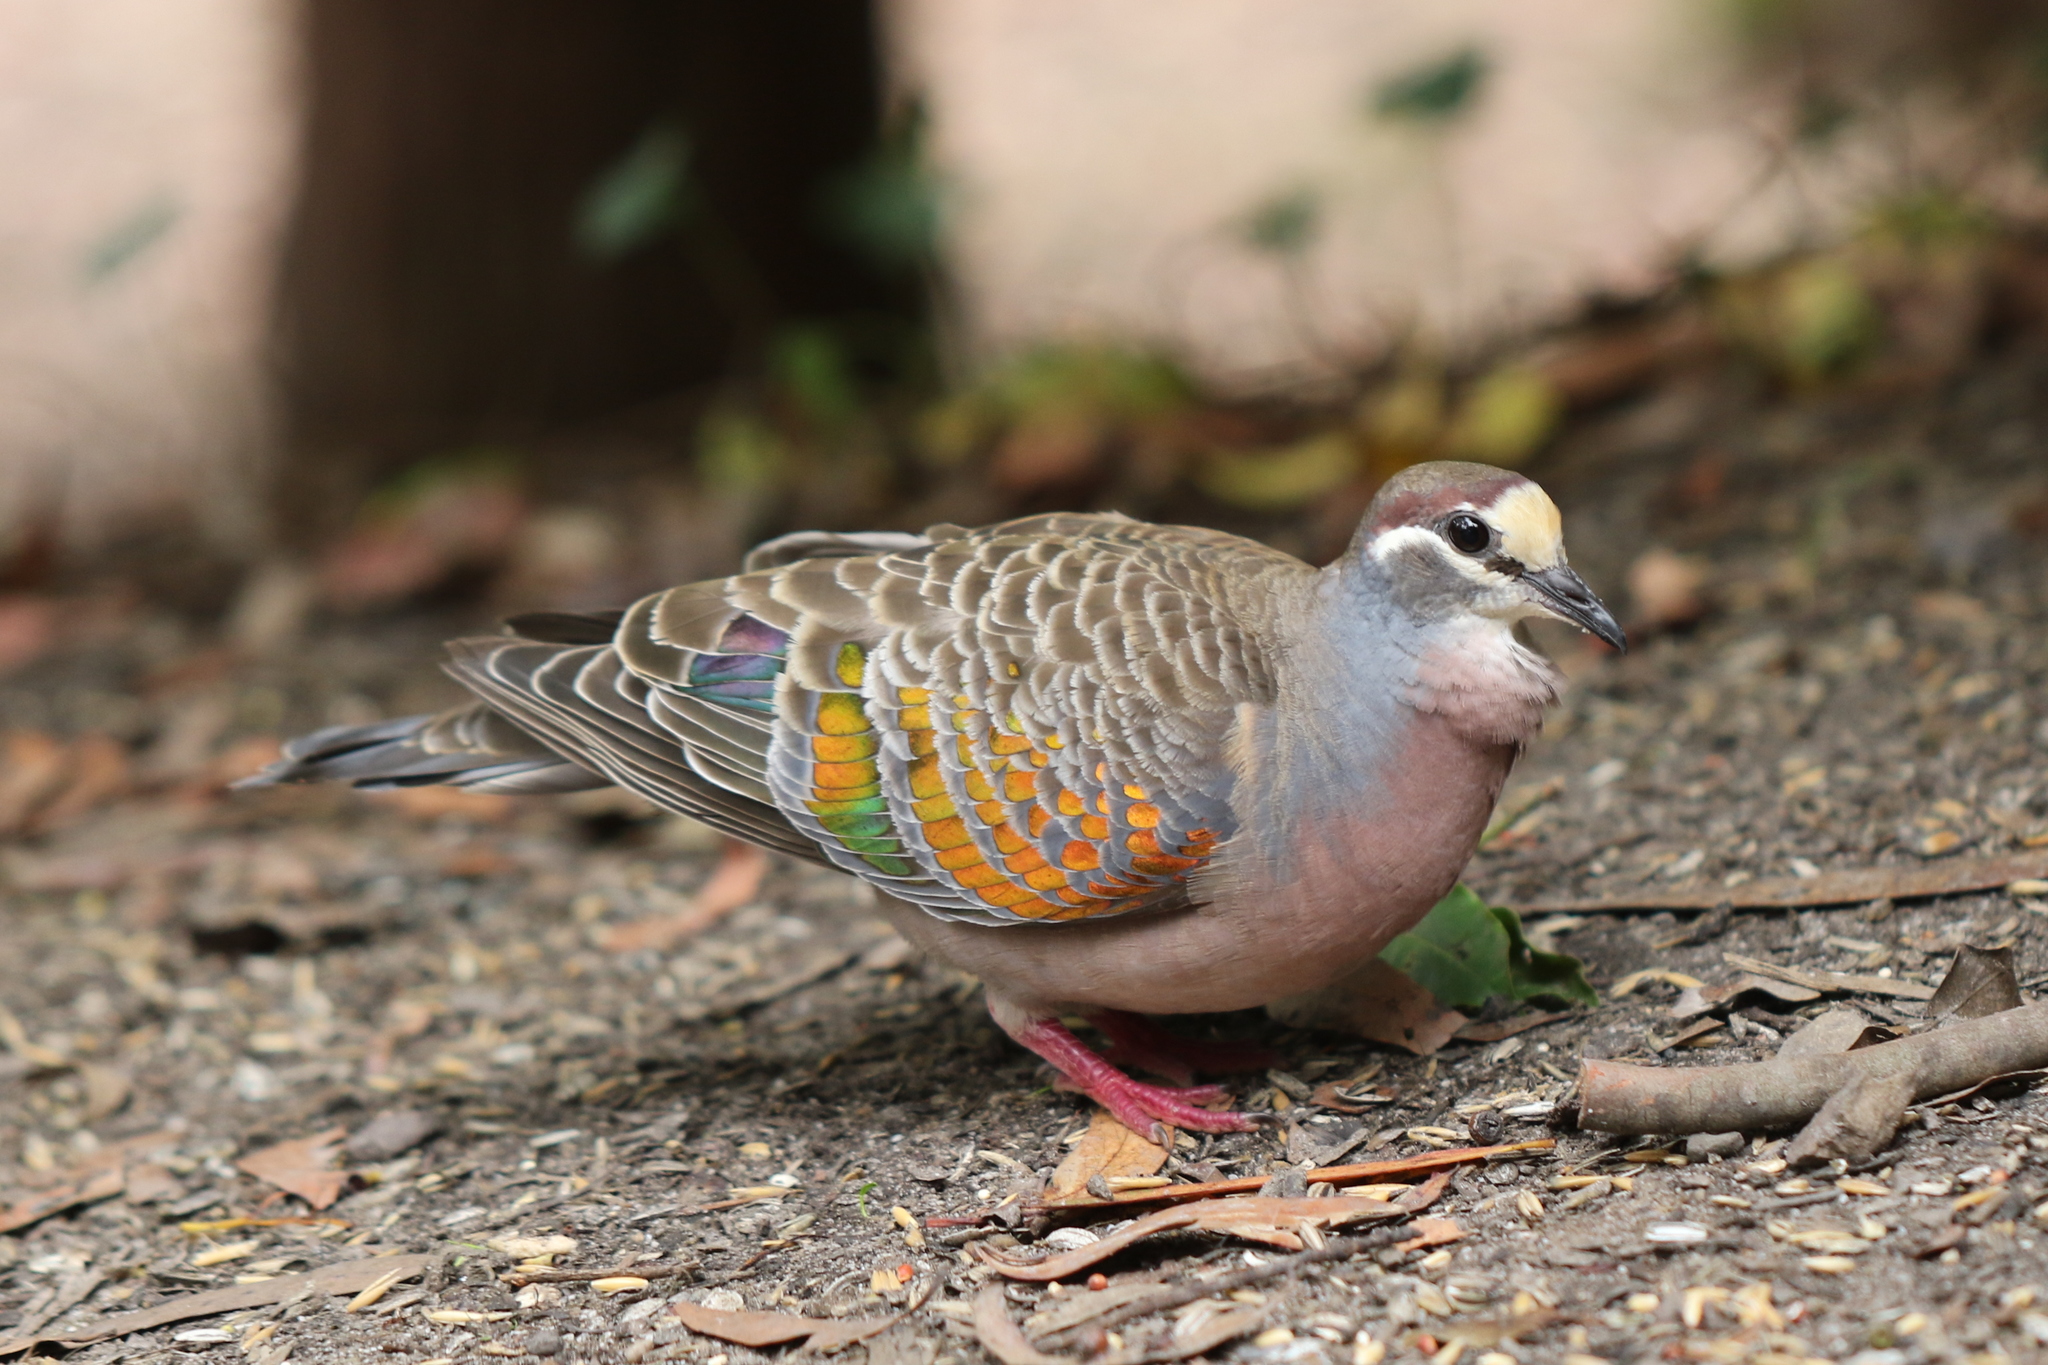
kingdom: Animalia
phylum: Chordata
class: Aves
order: Columbiformes
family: Columbidae
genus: Phaps
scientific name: Phaps chalcoptera
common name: Common bronzewing
